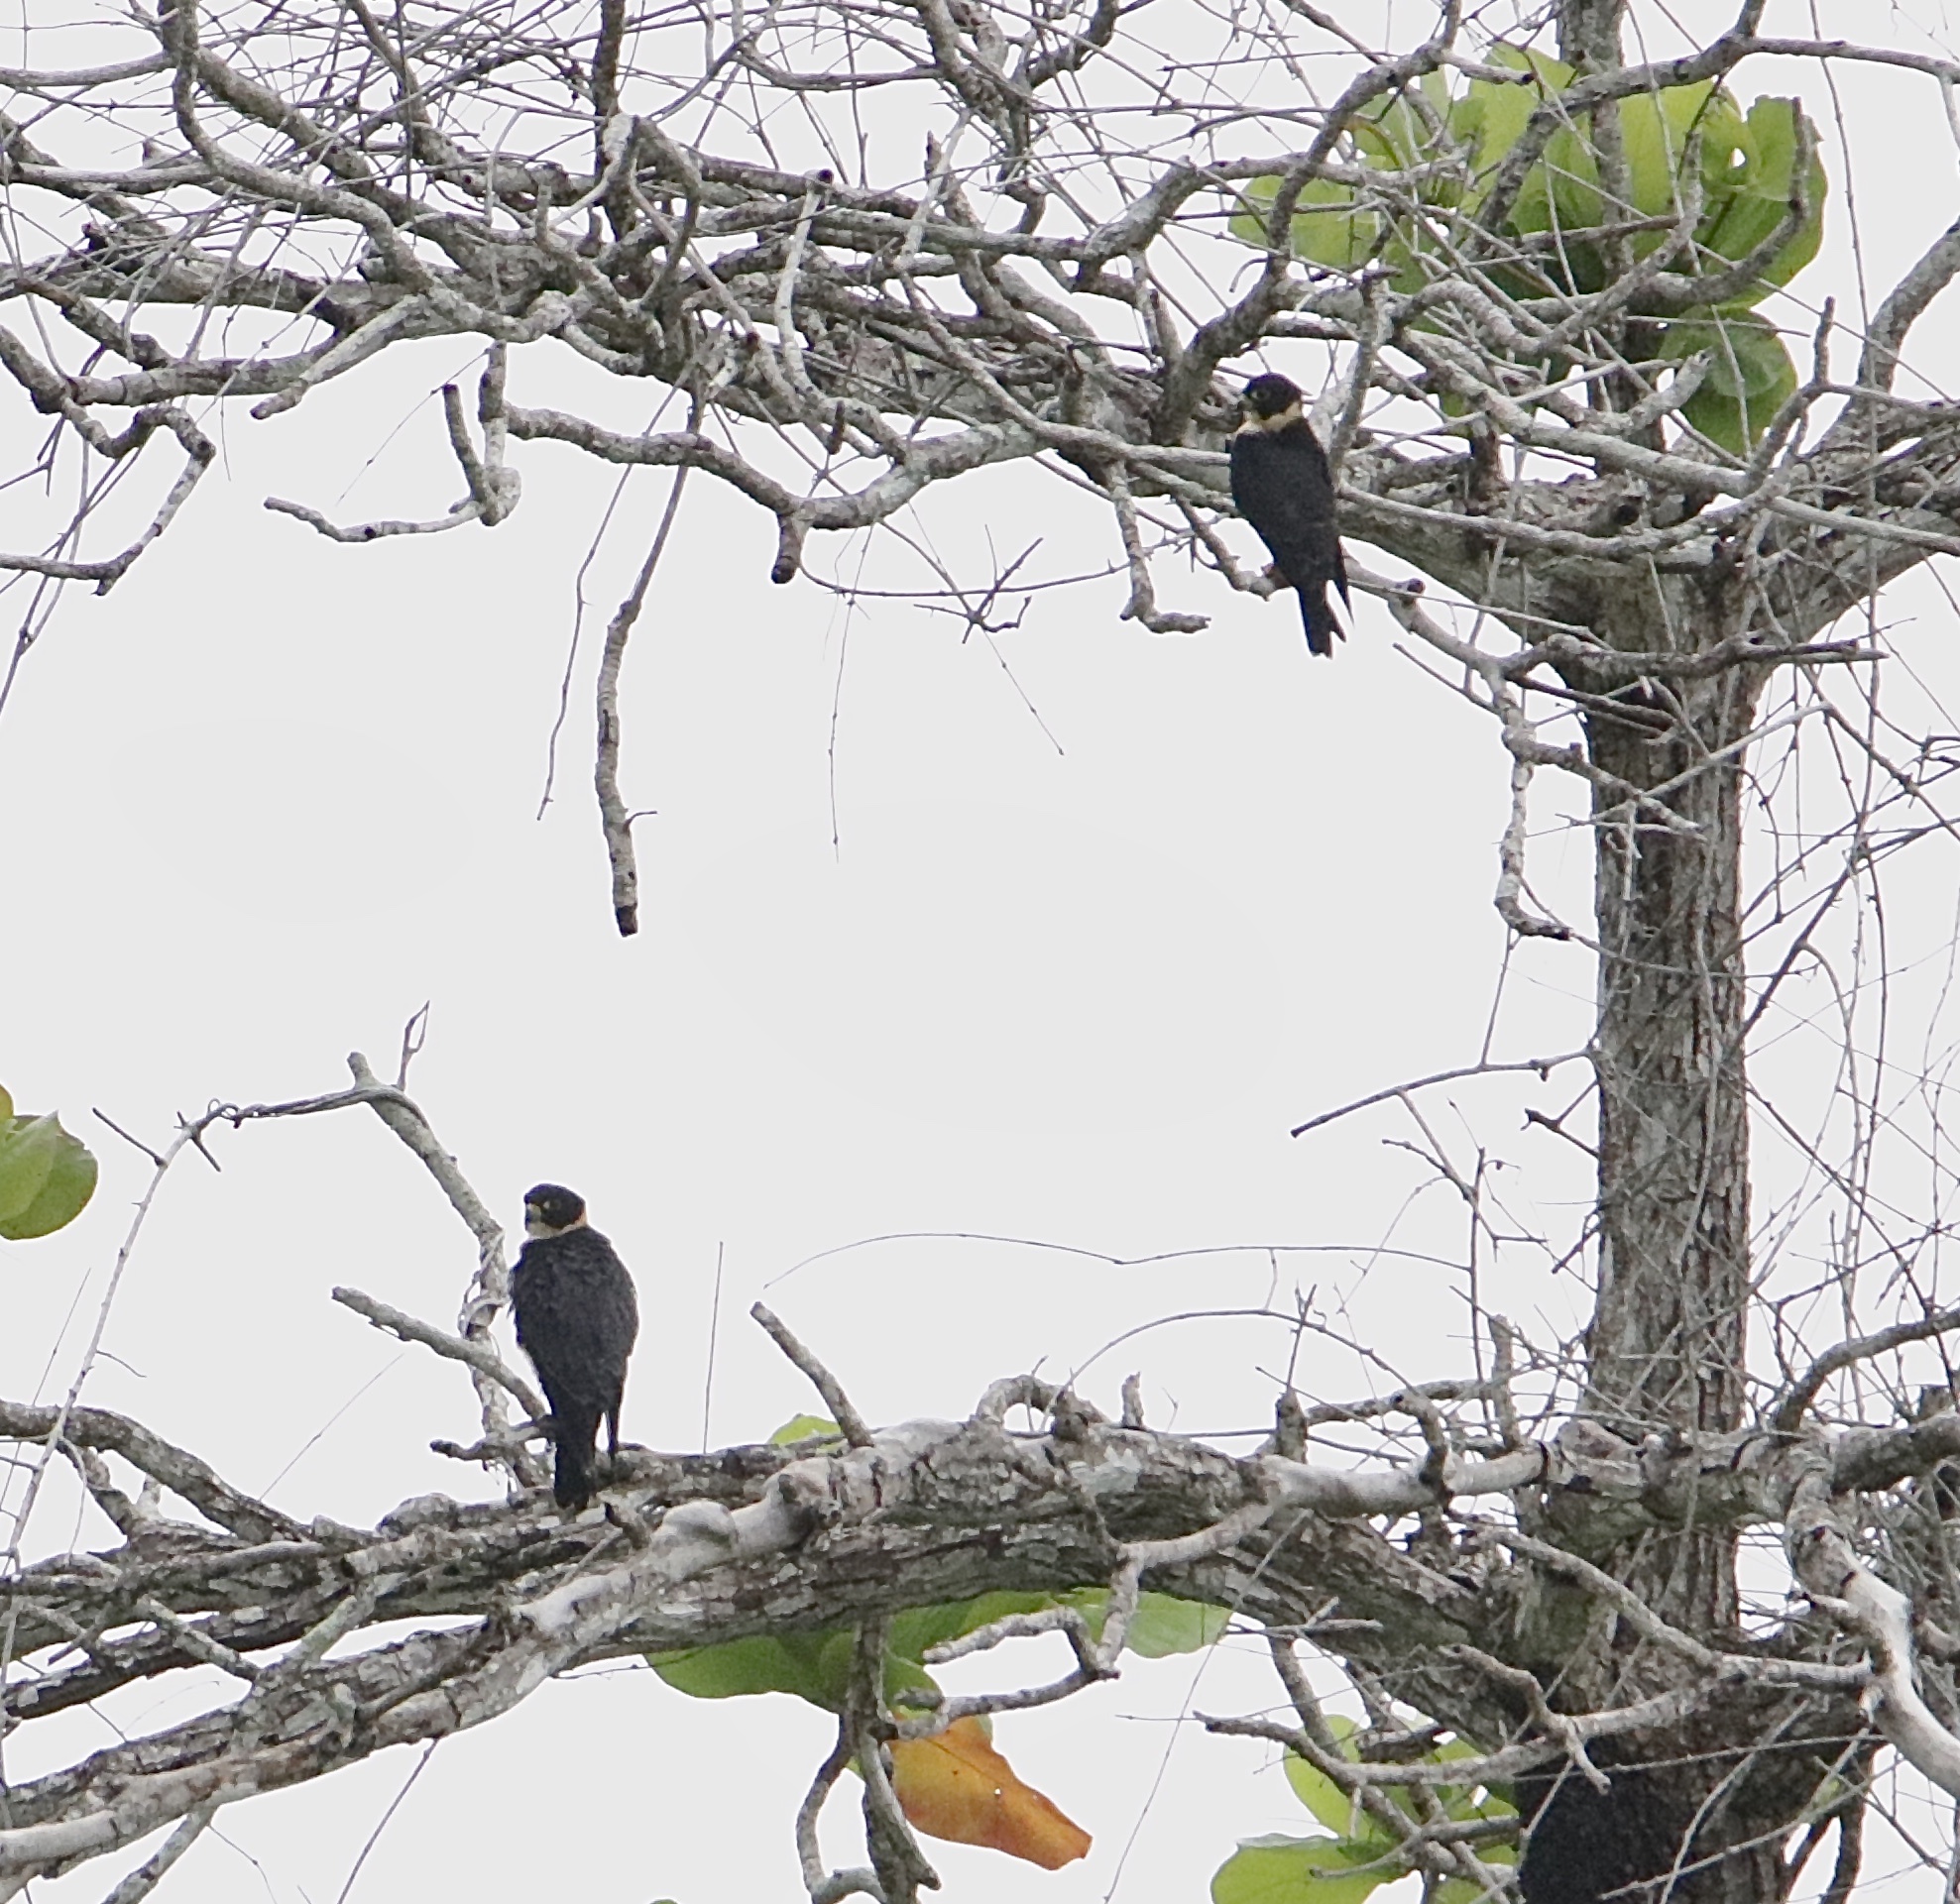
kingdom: Animalia
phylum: Chordata
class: Aves
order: Falconiformes
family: Falconidae
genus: Falco
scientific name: Falco rufigularis
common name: Bat falcon
